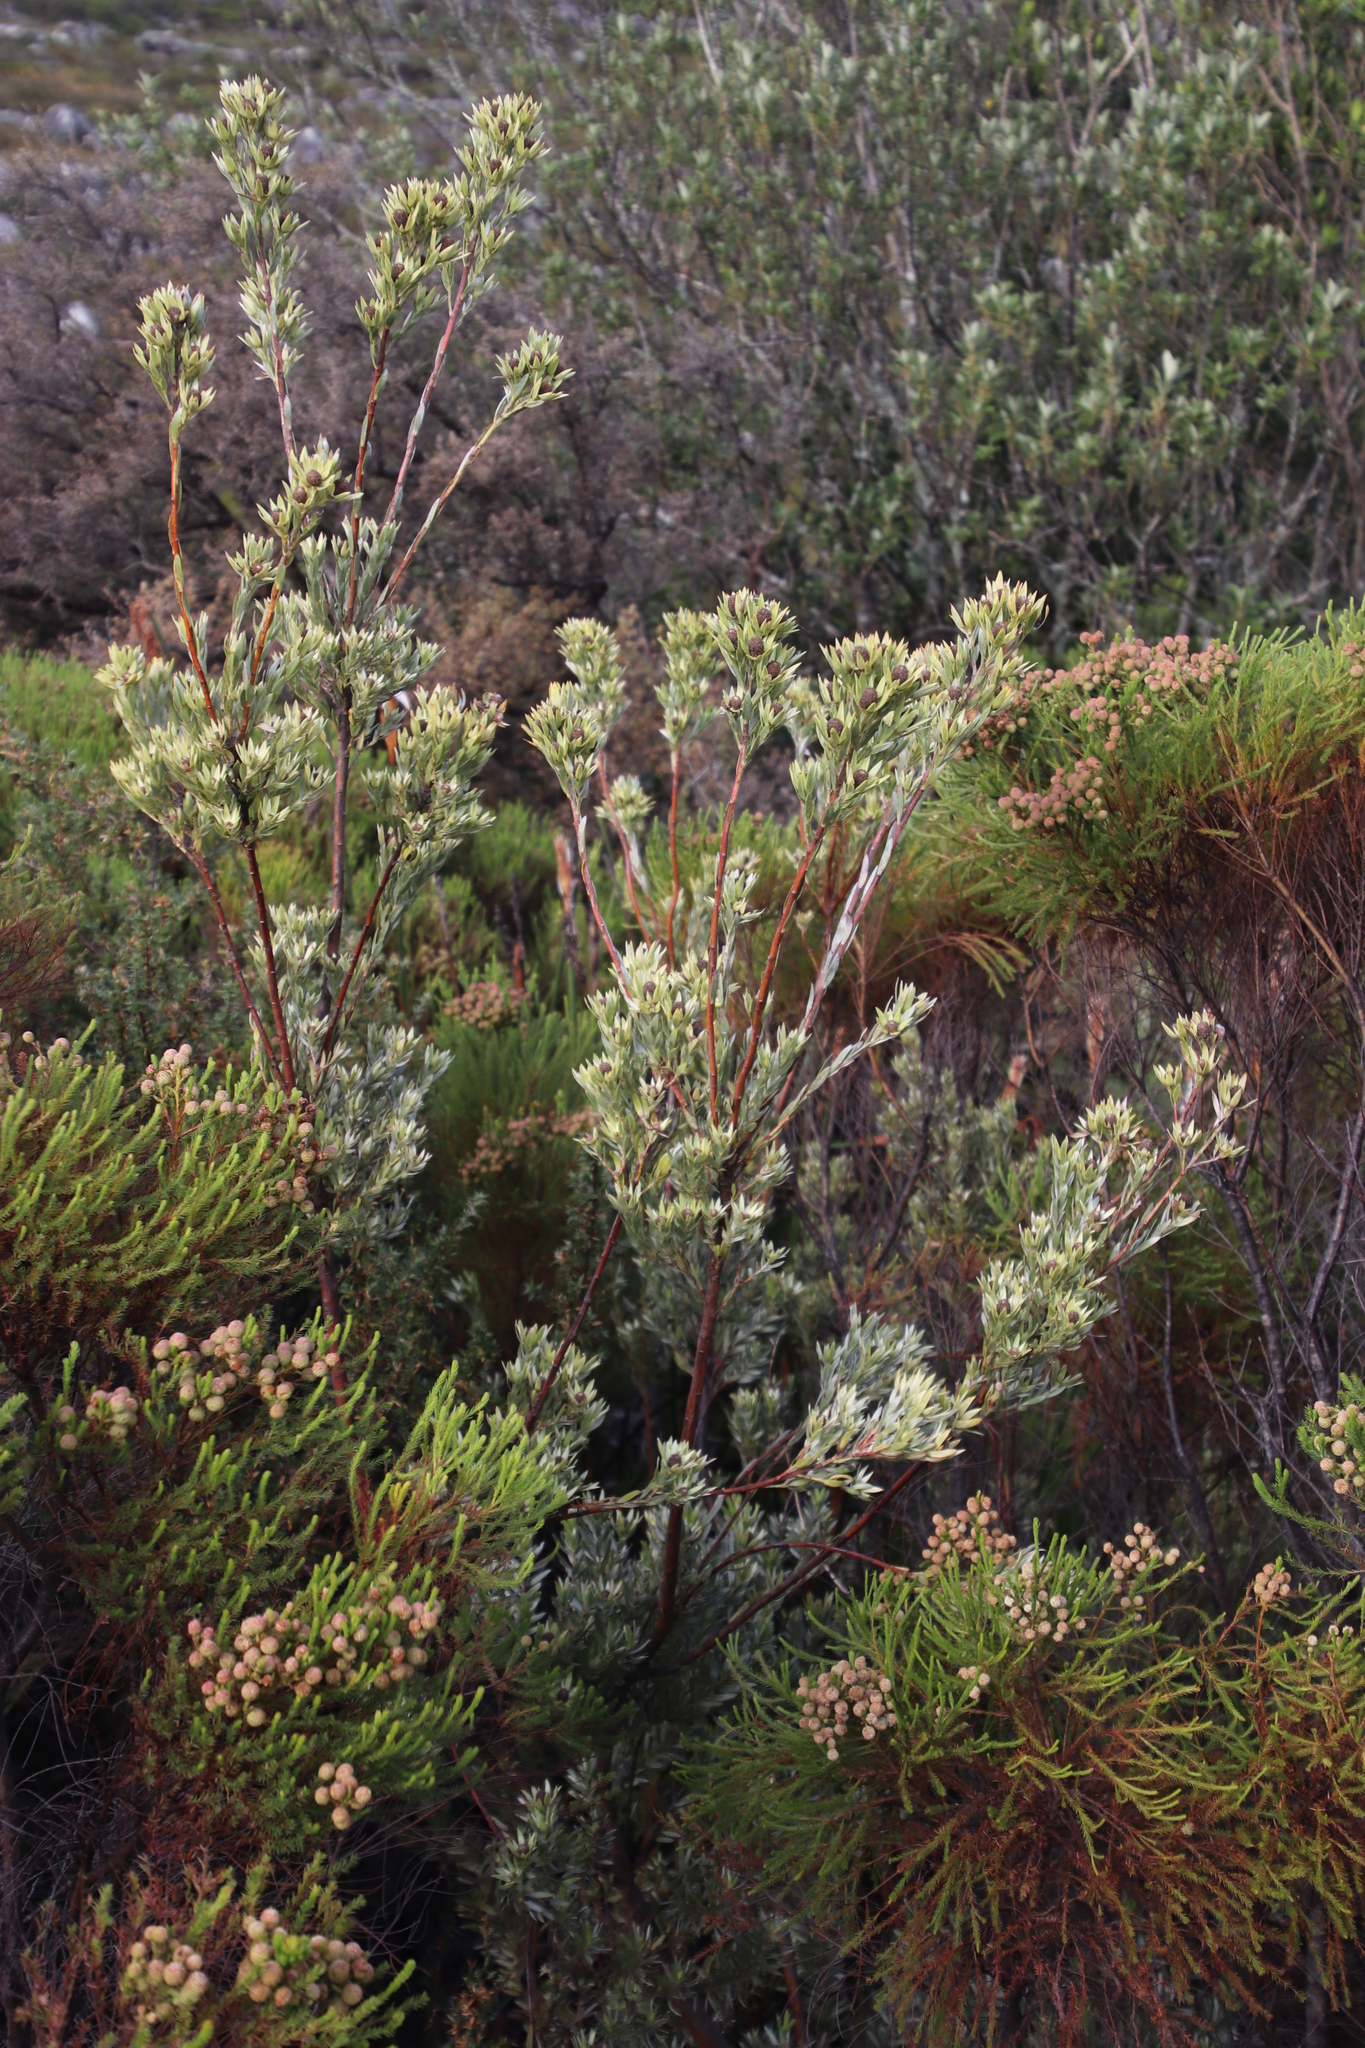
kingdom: Plantae
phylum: Tracheophyta
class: Magnoliopsida
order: Proteales
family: Proteaceae
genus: Leucadendron
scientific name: Leucadendron
